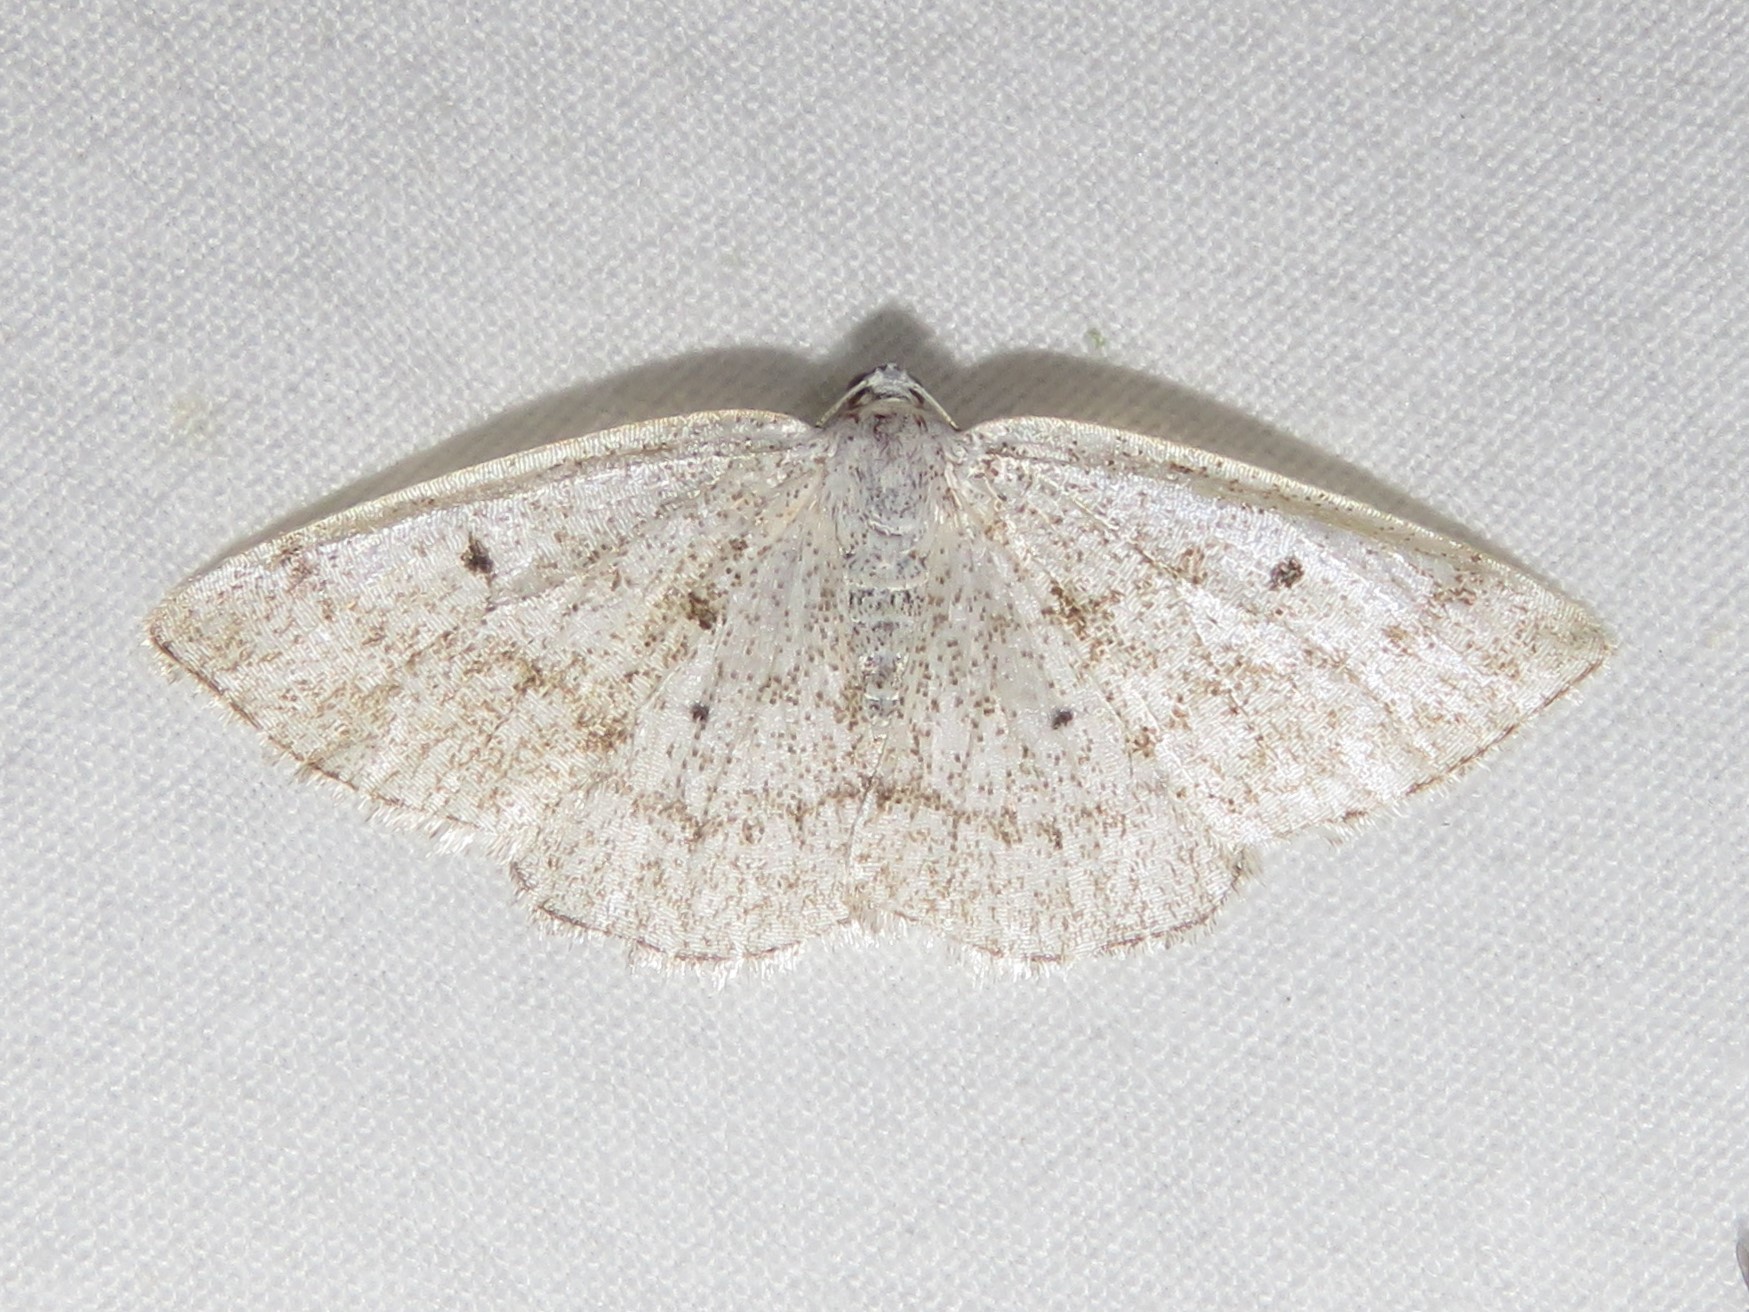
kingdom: Animalia
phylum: Arthropoda
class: Insecta
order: Lepidoptera
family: Geometridae
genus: Lomographa
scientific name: Lomographa glomeraria
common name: Gray spring moth
